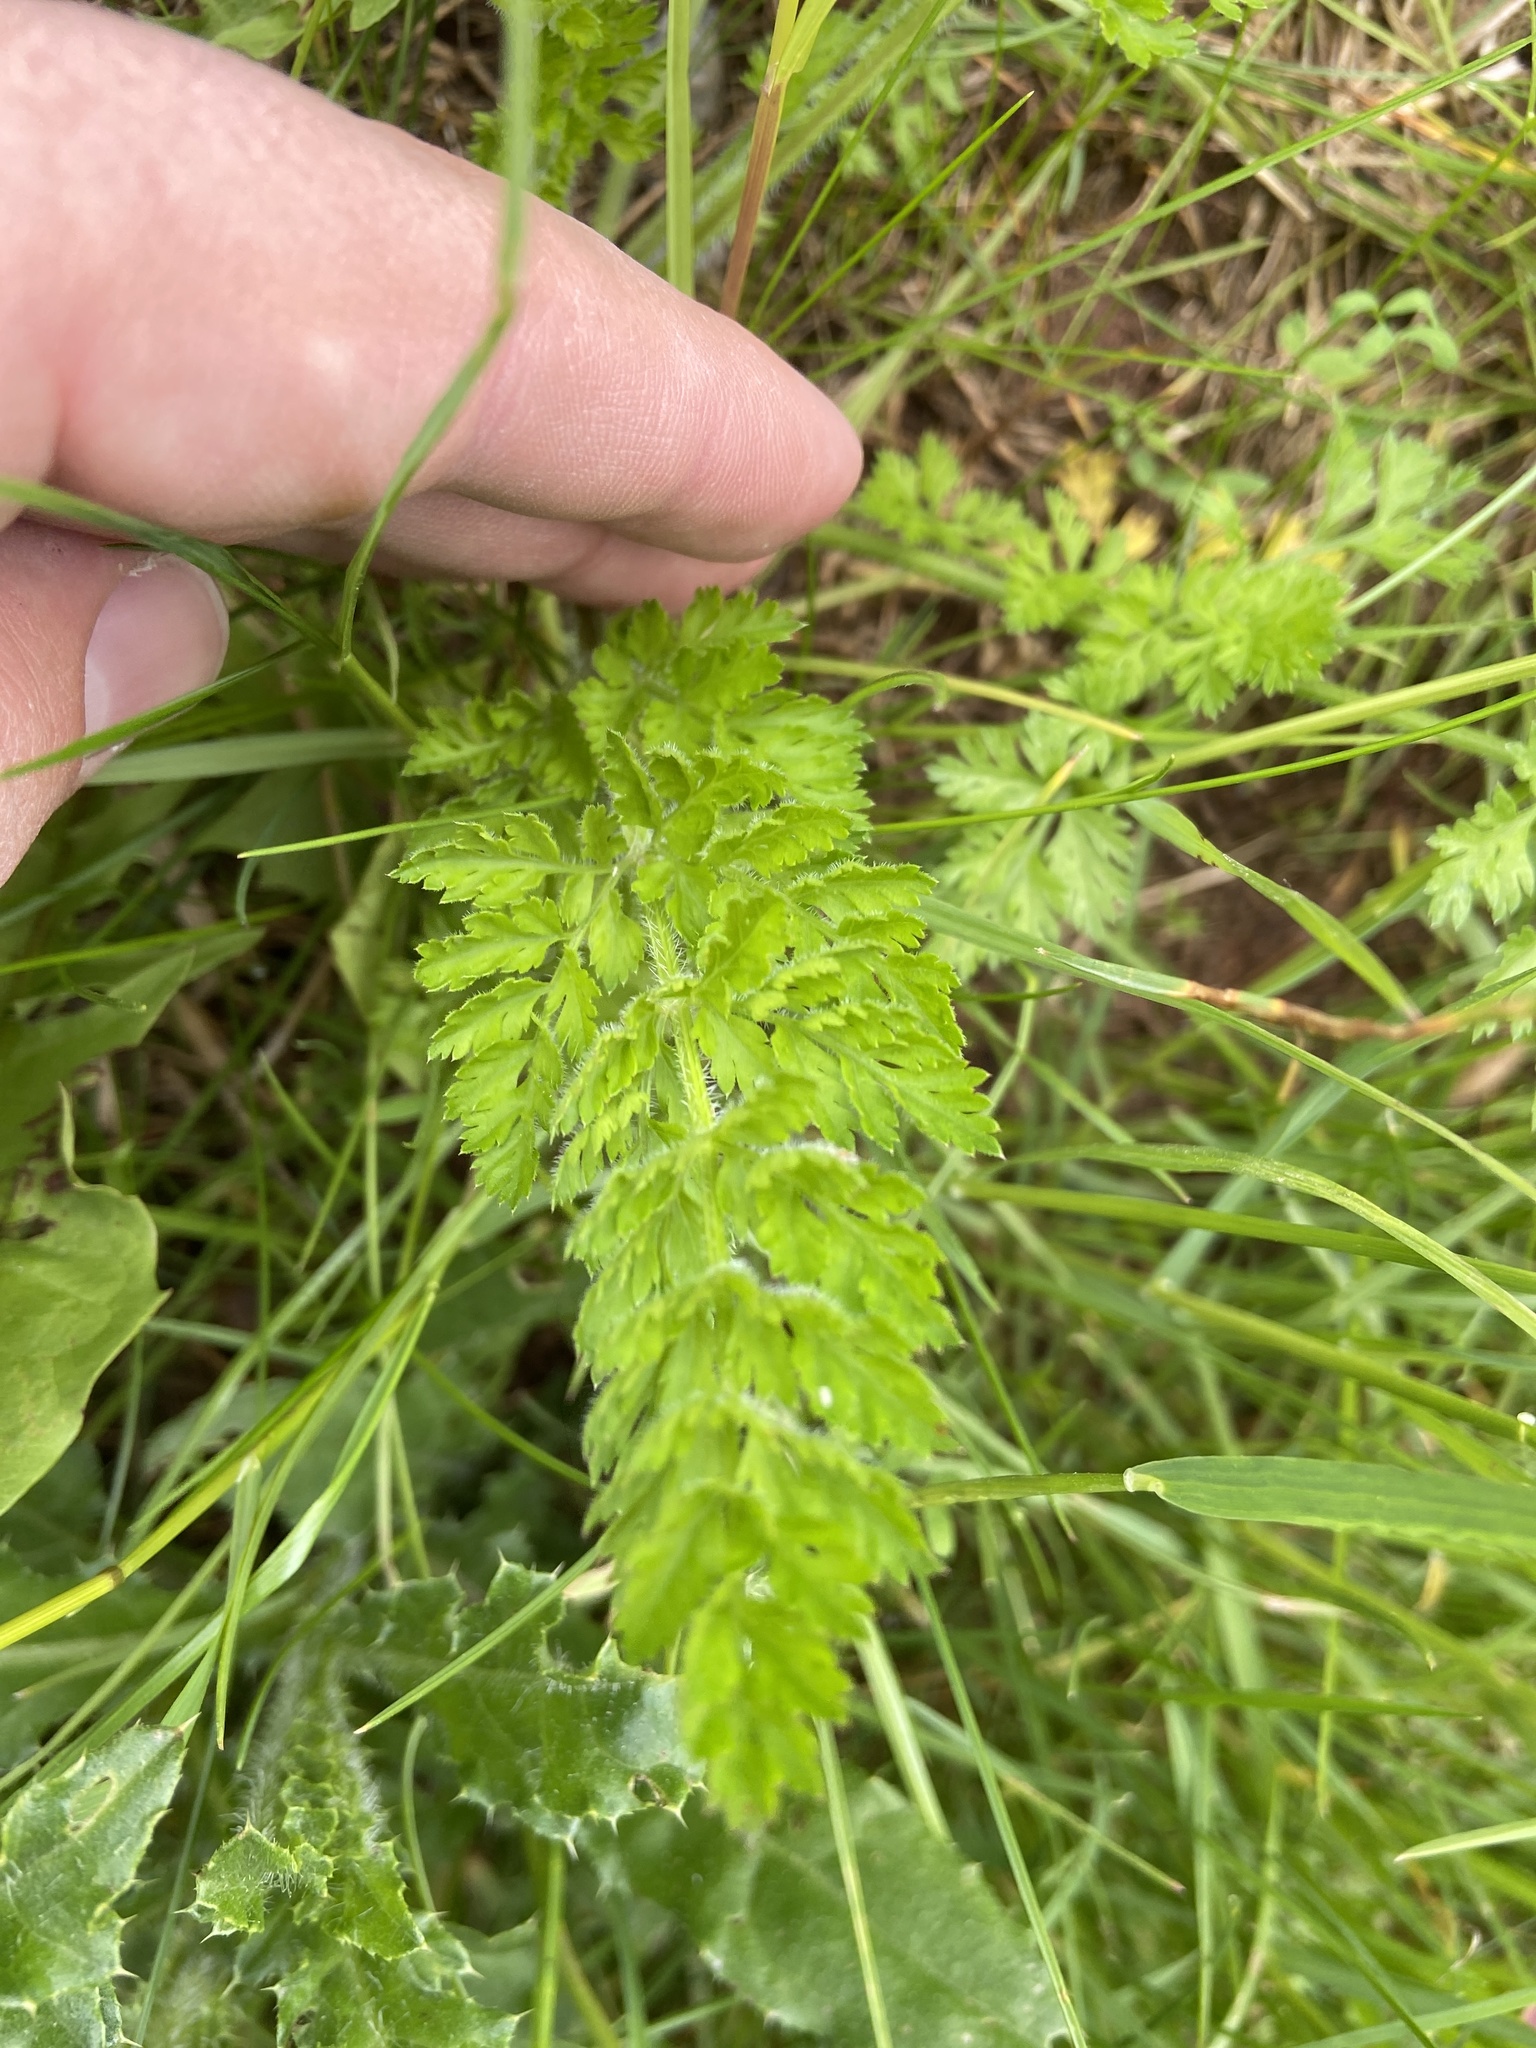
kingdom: Plantae
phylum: Tracheophyta
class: Magnoliopsida
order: Apiales
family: Apiaceae
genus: Daucus
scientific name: Daucus carota
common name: Wild carrot
